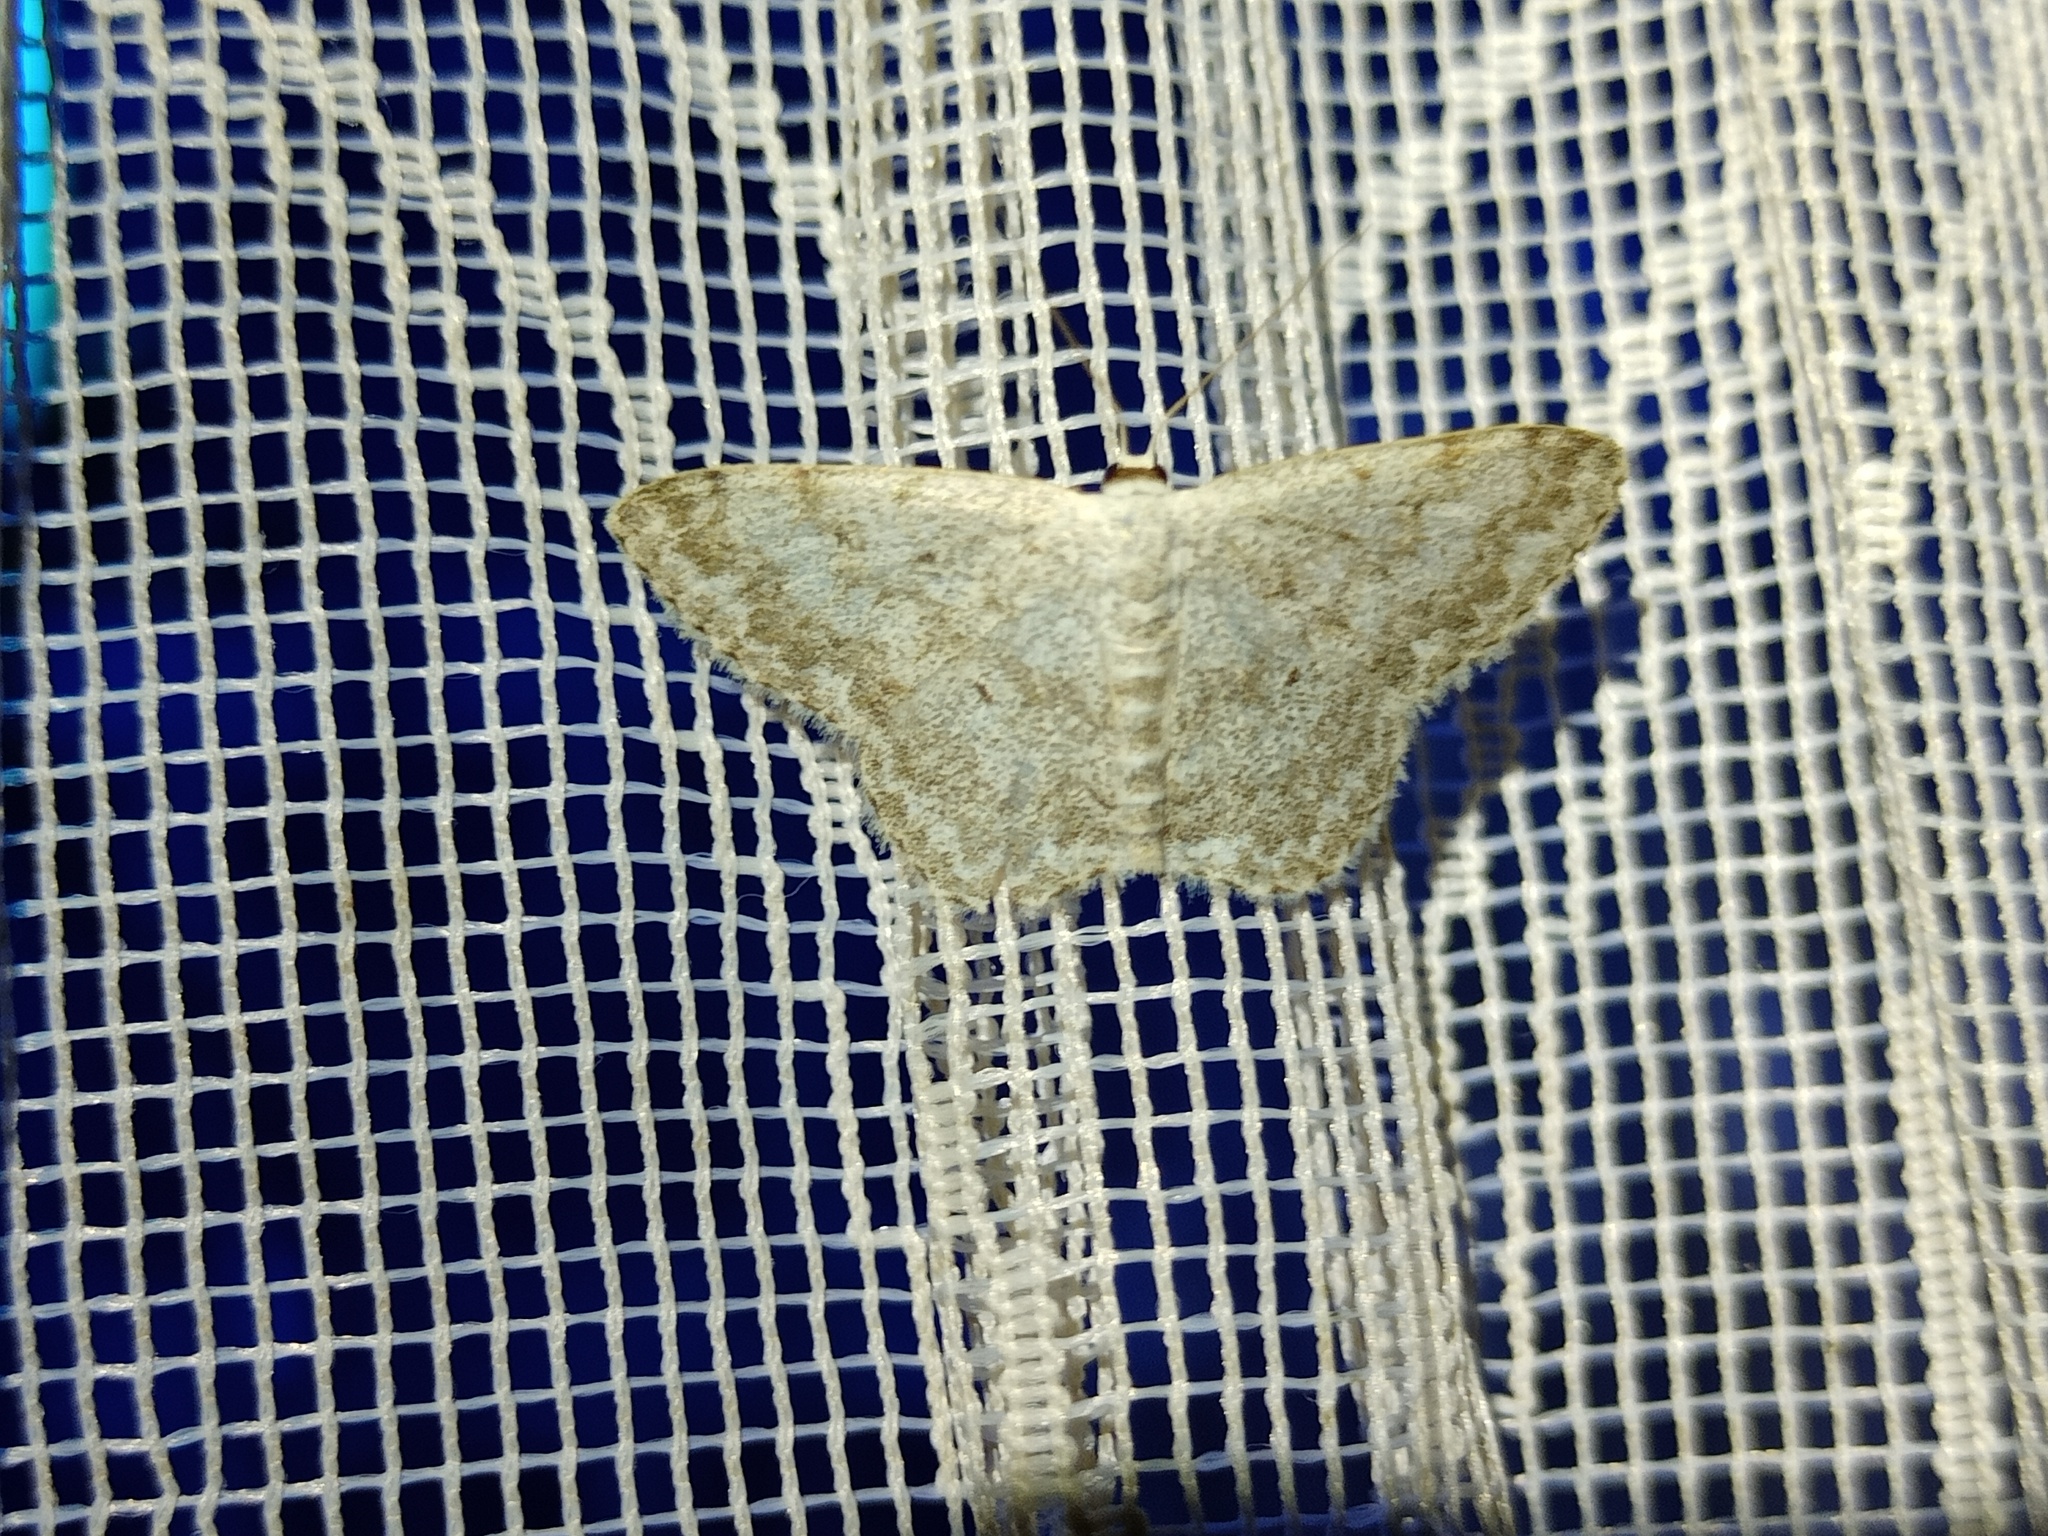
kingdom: Animalia
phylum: Arthropoda
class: Insecta
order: Lepidoptera
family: Geometridae
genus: Scopula
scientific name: Scopula marginepunctata
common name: Mullein wave
